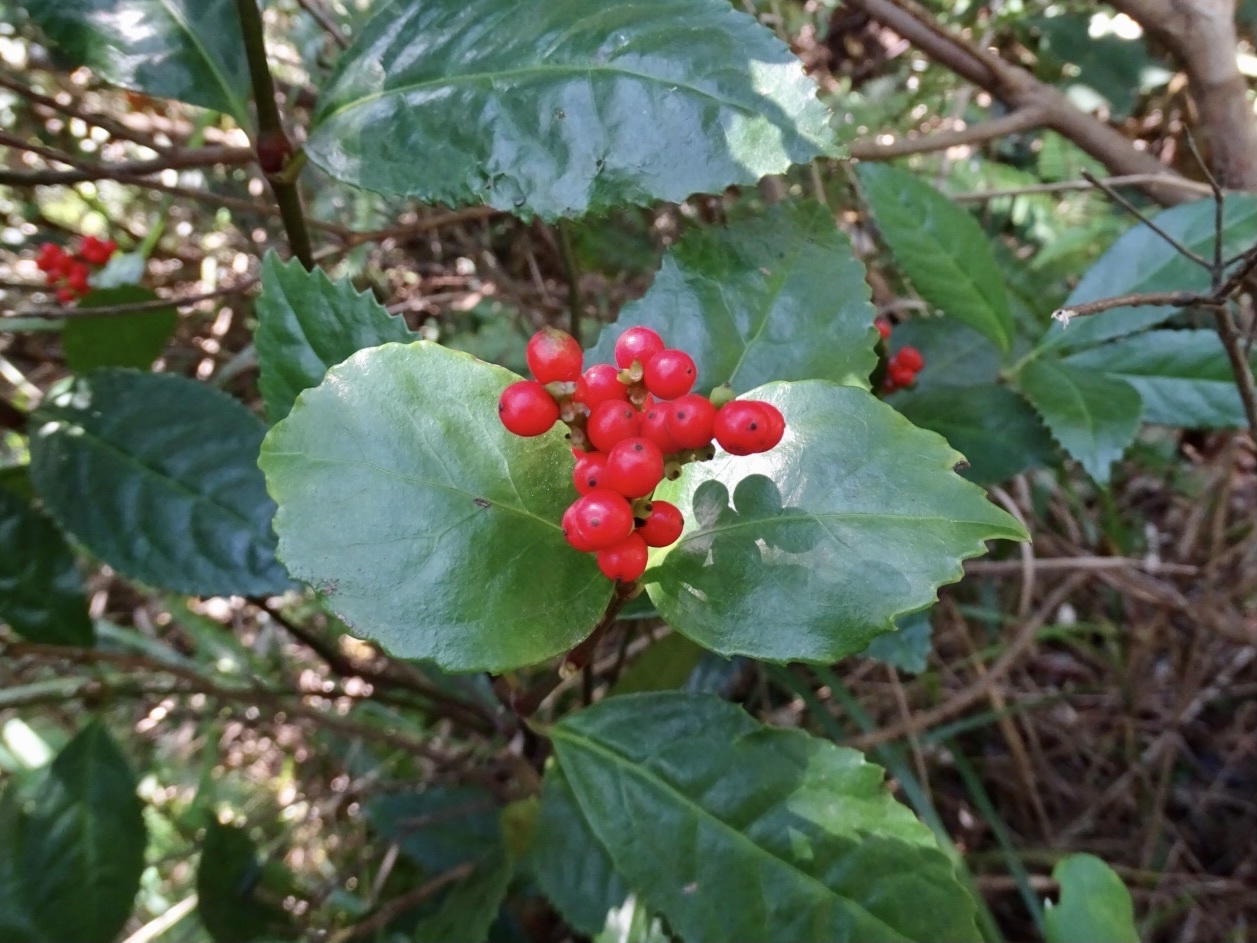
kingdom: Plantae
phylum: Tracheophyta
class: Magnoliopsida
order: Chloranthales
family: Chloranthaceae
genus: Sarcandra
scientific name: Sarcandra glabra
